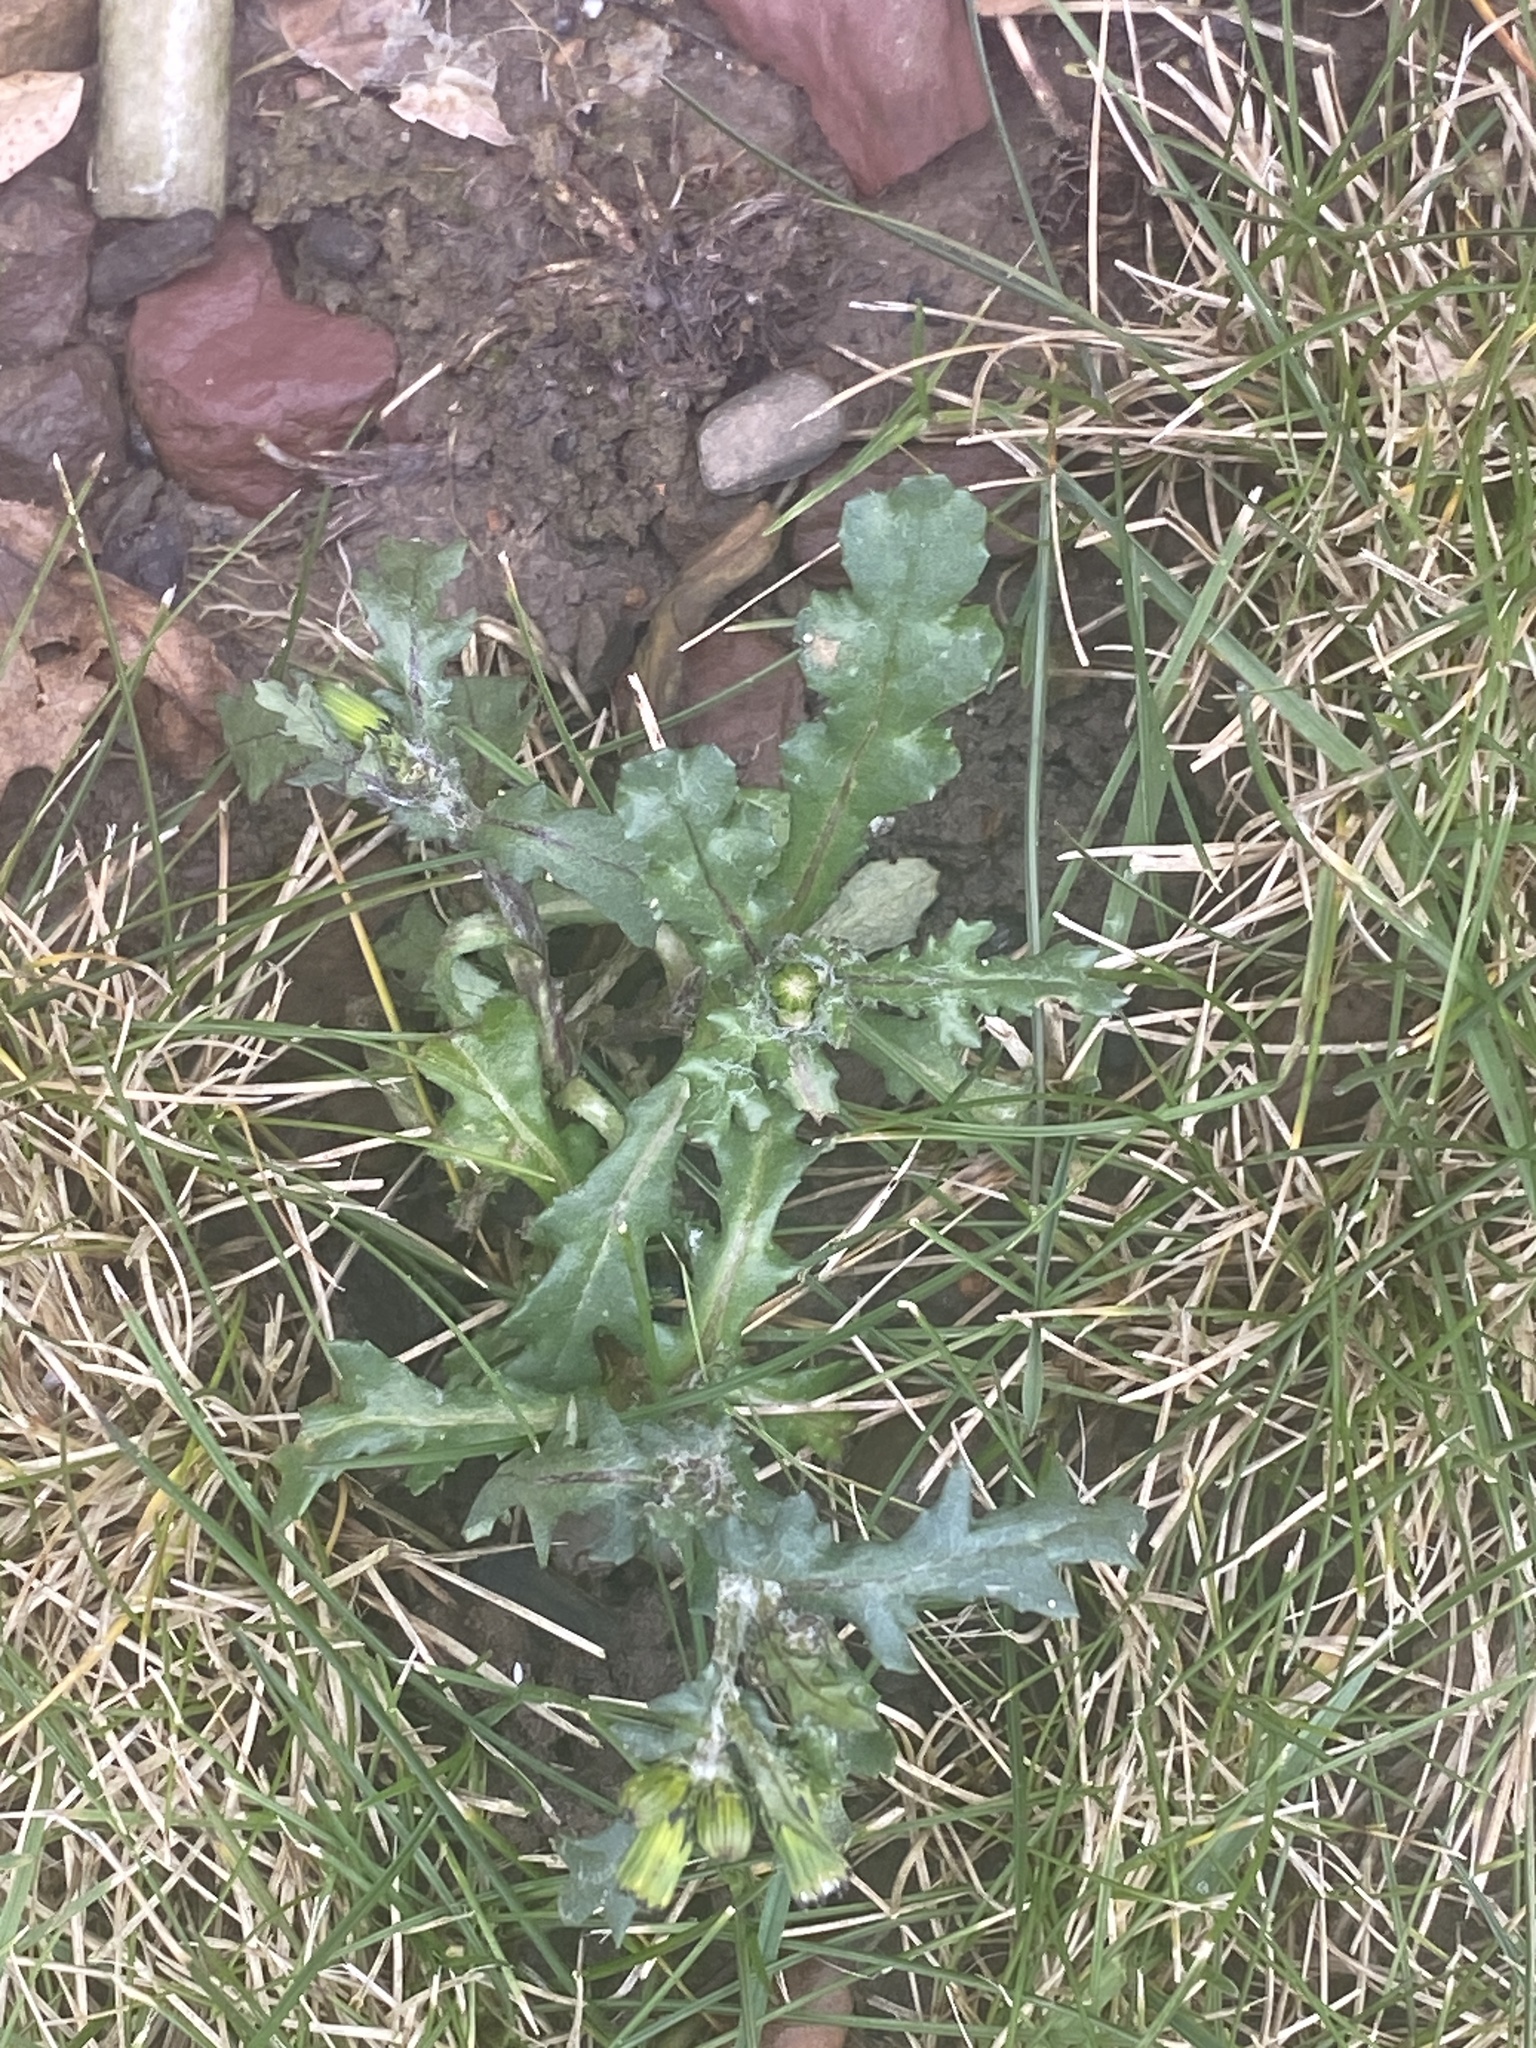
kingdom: Plantae
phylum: Tracheophyta
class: Magnoliopsida
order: Asterales
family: Asteraceae
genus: Senecio
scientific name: Senecio vulgaris
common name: Old-man-in-the-spring
